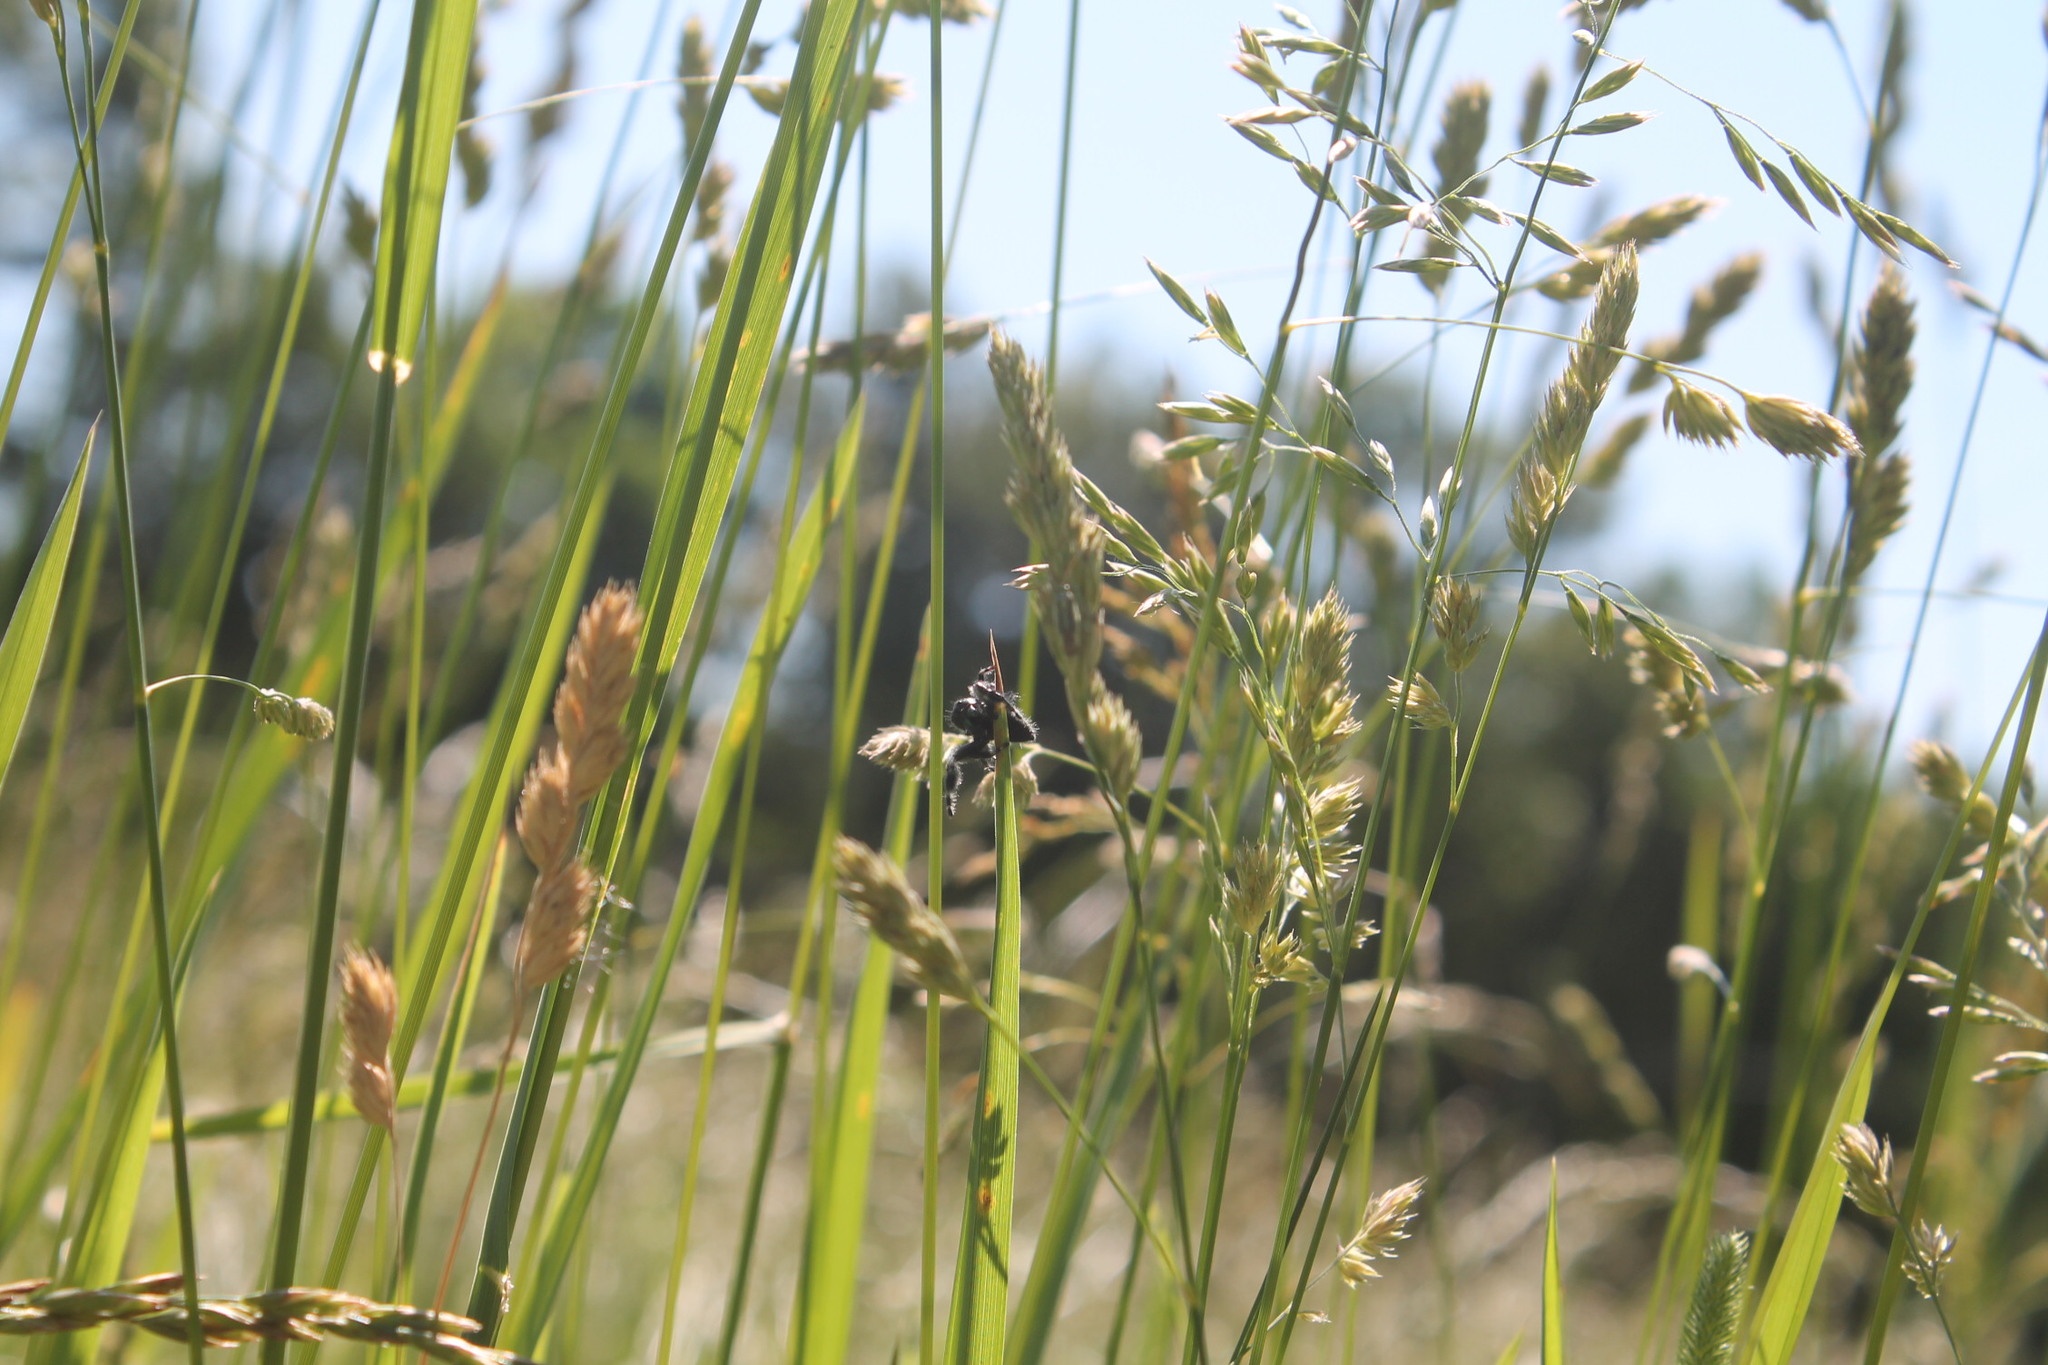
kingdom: Animalia
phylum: Arthropoda
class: Arachnida
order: Araneae
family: Salticidae
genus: Phidippus
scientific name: Phidippus audax
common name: Bold jumper
